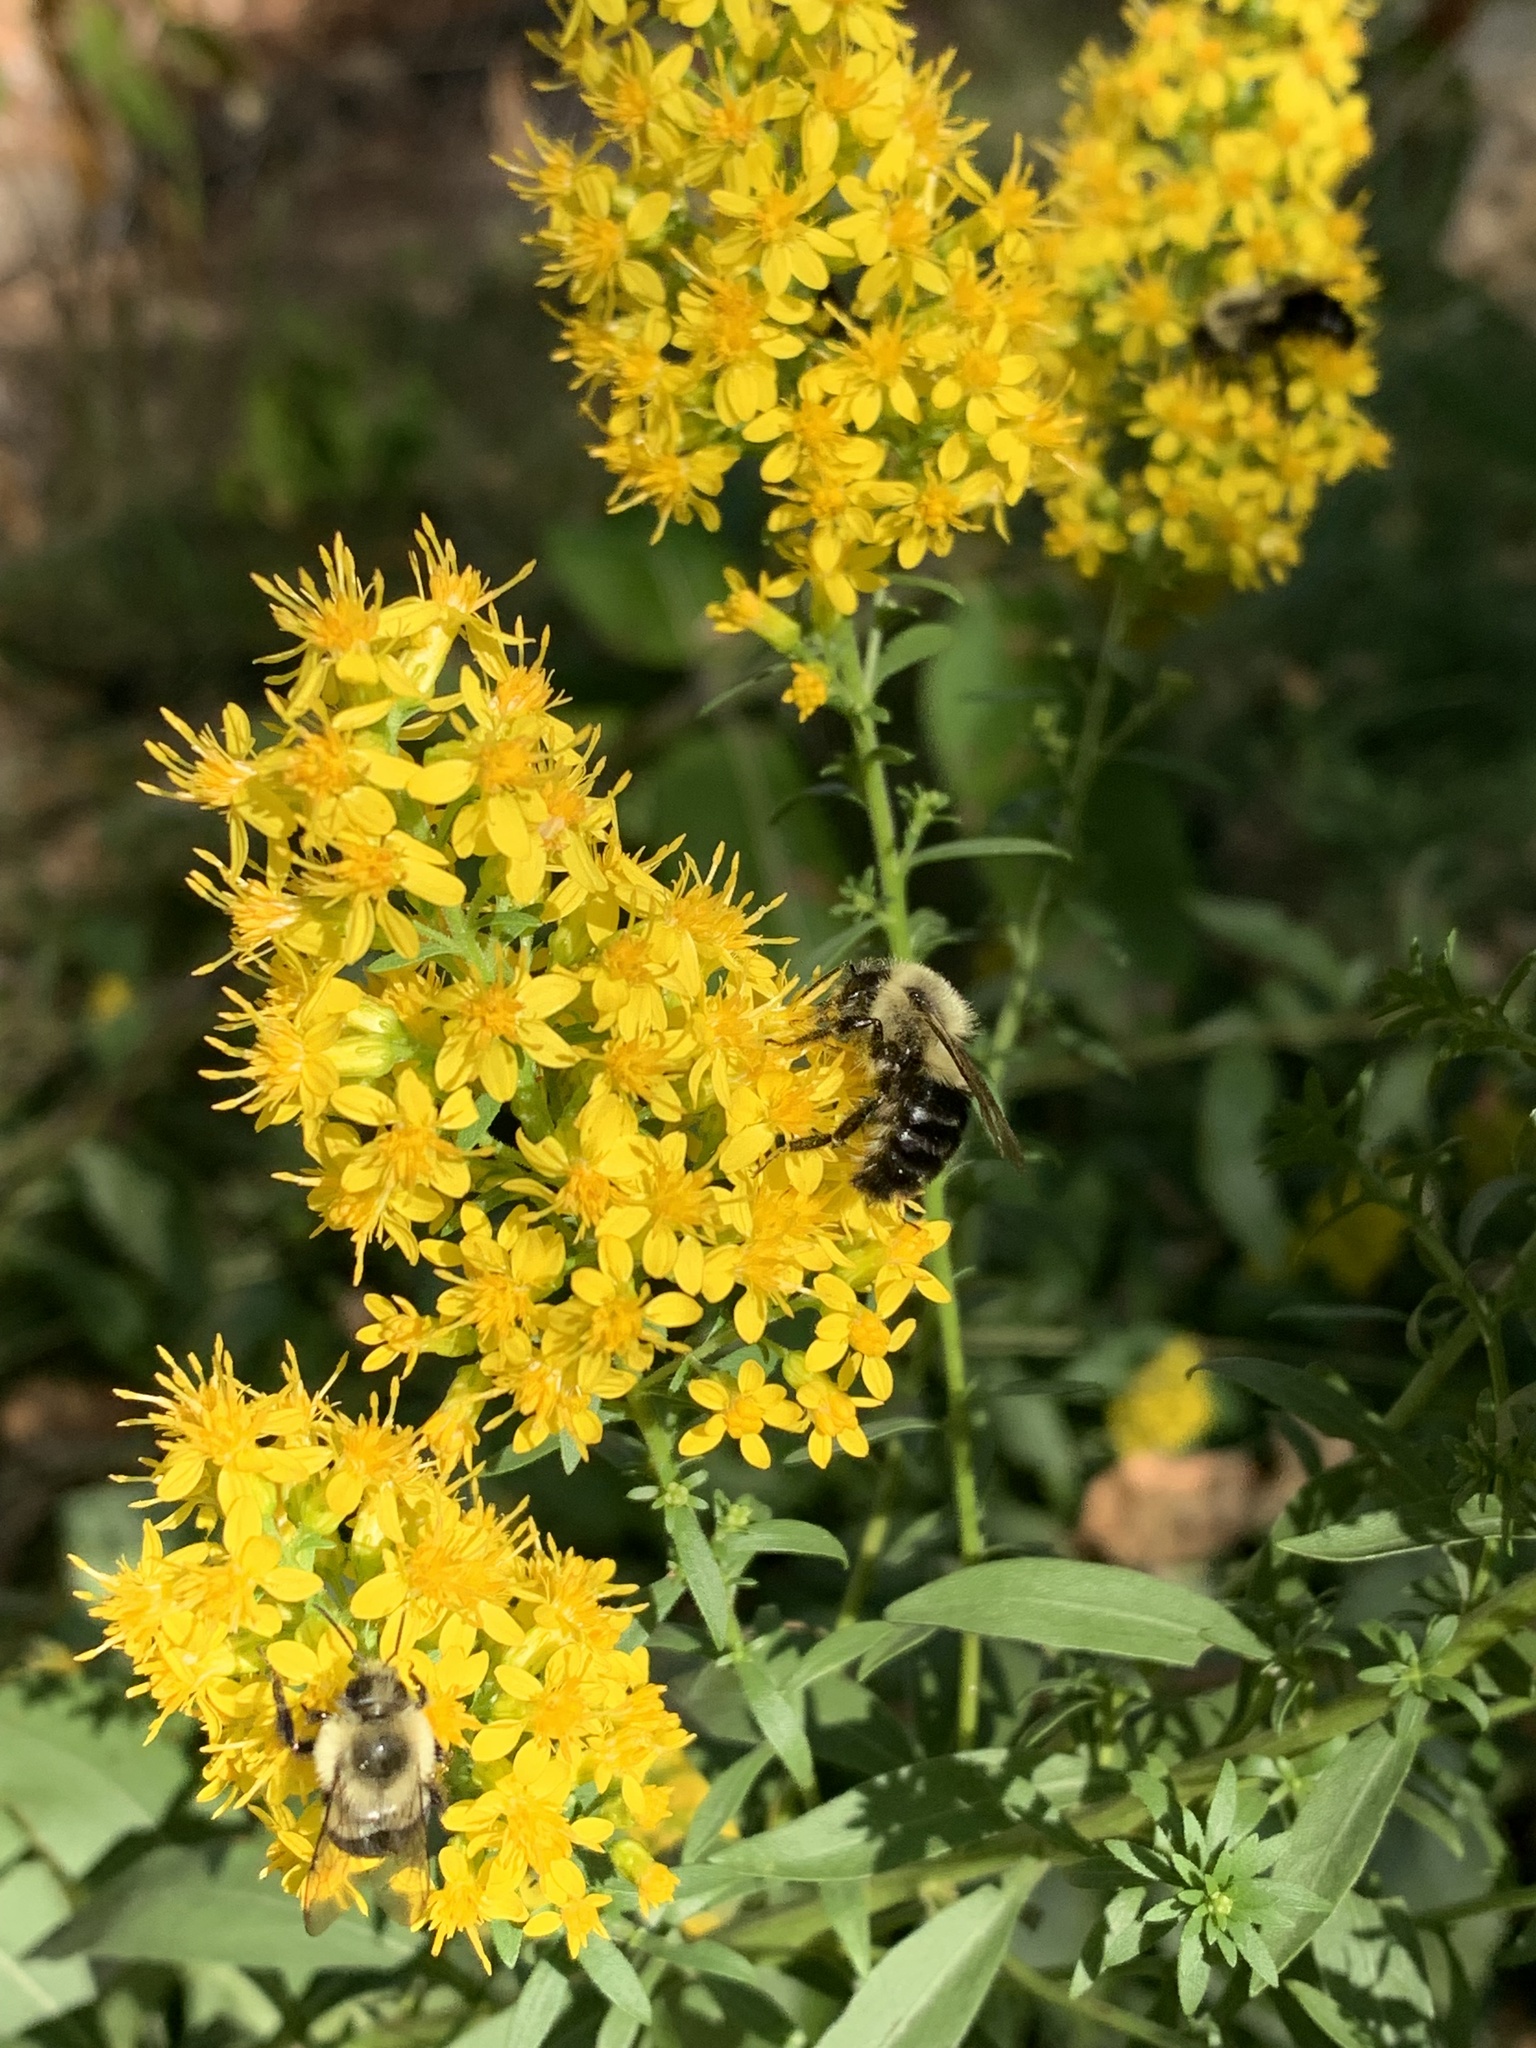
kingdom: Animalia
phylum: Arthropoda
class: Insecta
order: Hymenoptera
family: Apidae
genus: Bombus
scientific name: Bombus impatiens
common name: Common eastern bumble bee
